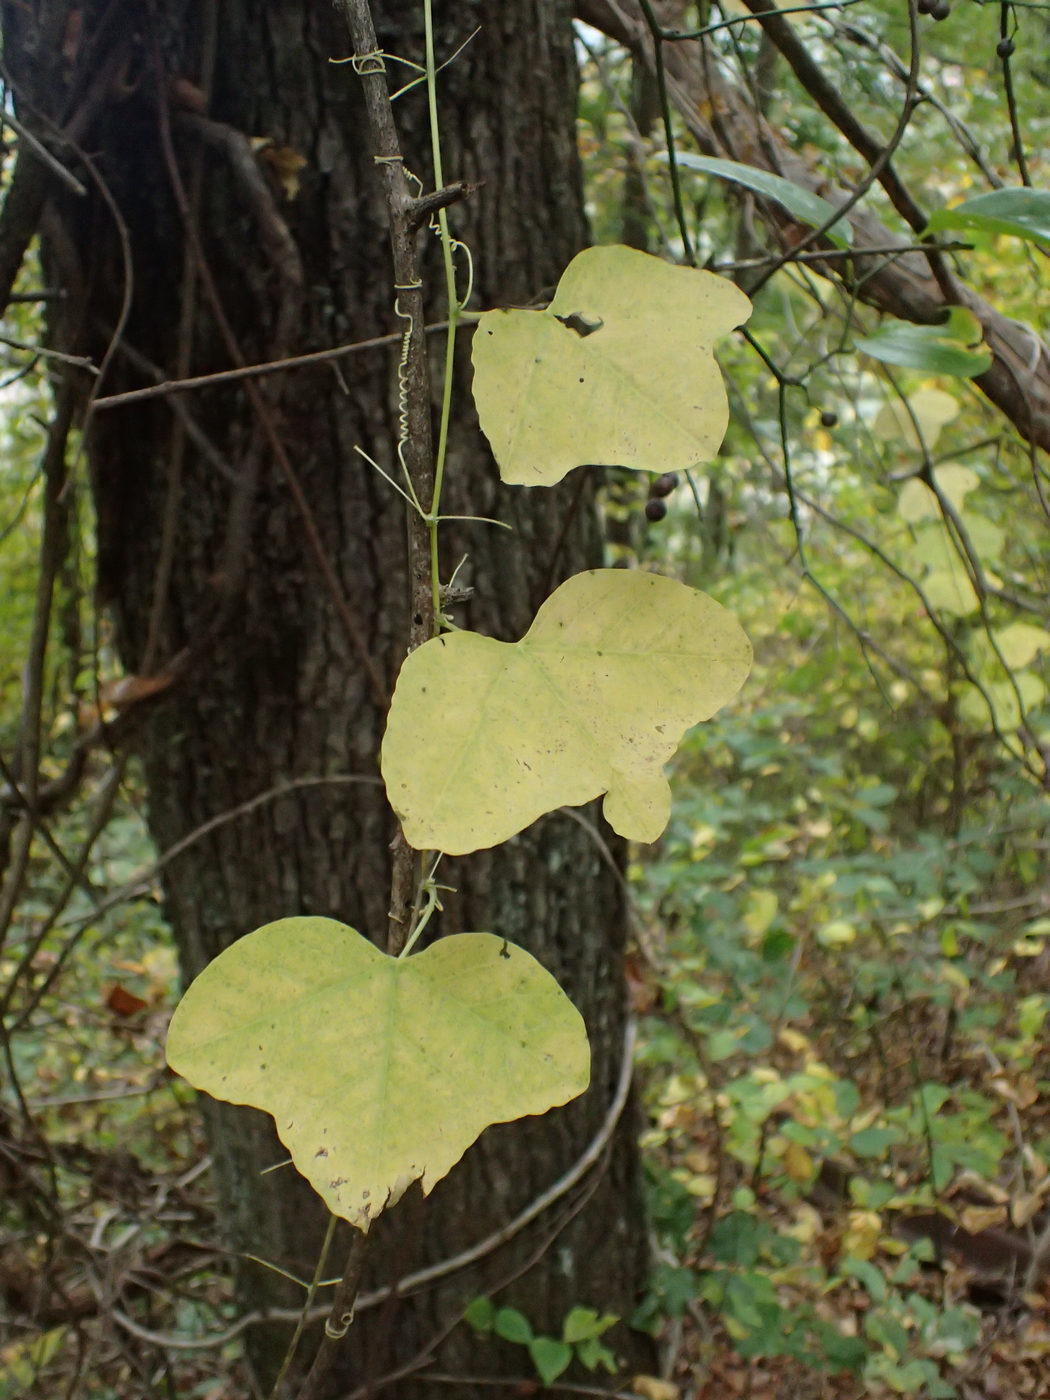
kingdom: Plantae
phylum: Tracheophyta
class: Magnoliopsida
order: Malpighiales
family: Passifloraceae
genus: Passiflora
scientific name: Passiflora lutea
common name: Yellow passionflower
